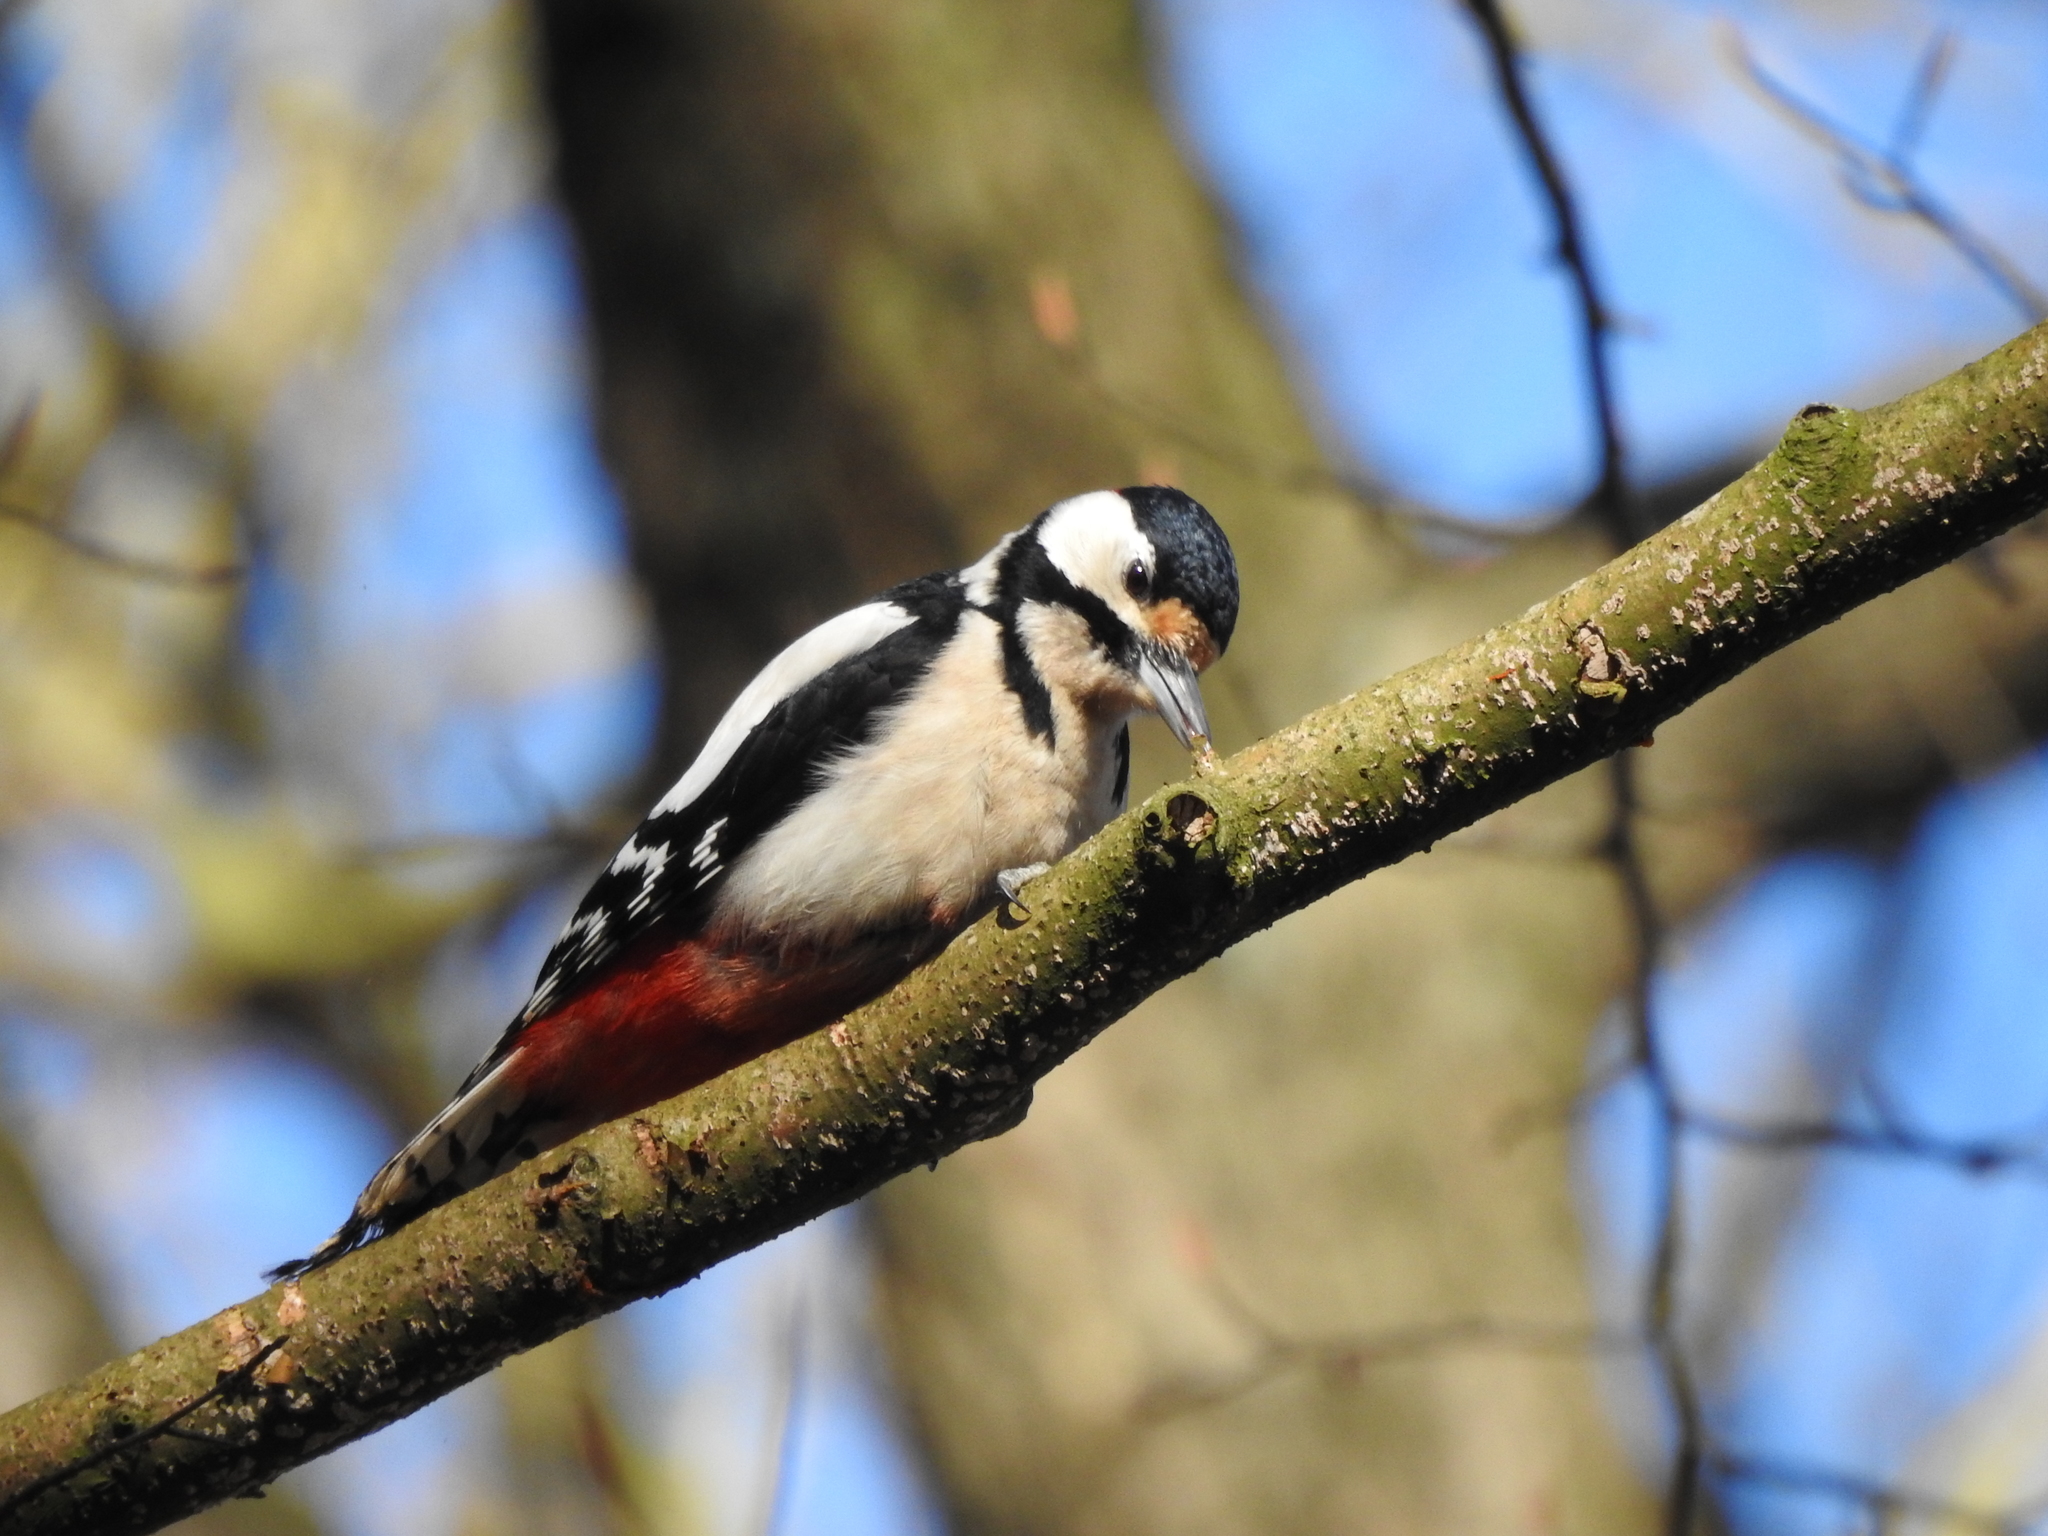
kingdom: Animalia
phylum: Chordata
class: Aves
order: Piciformes
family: Picidae
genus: Dendrocopos
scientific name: Dendrocopos major
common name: Great spotted woodpecker
